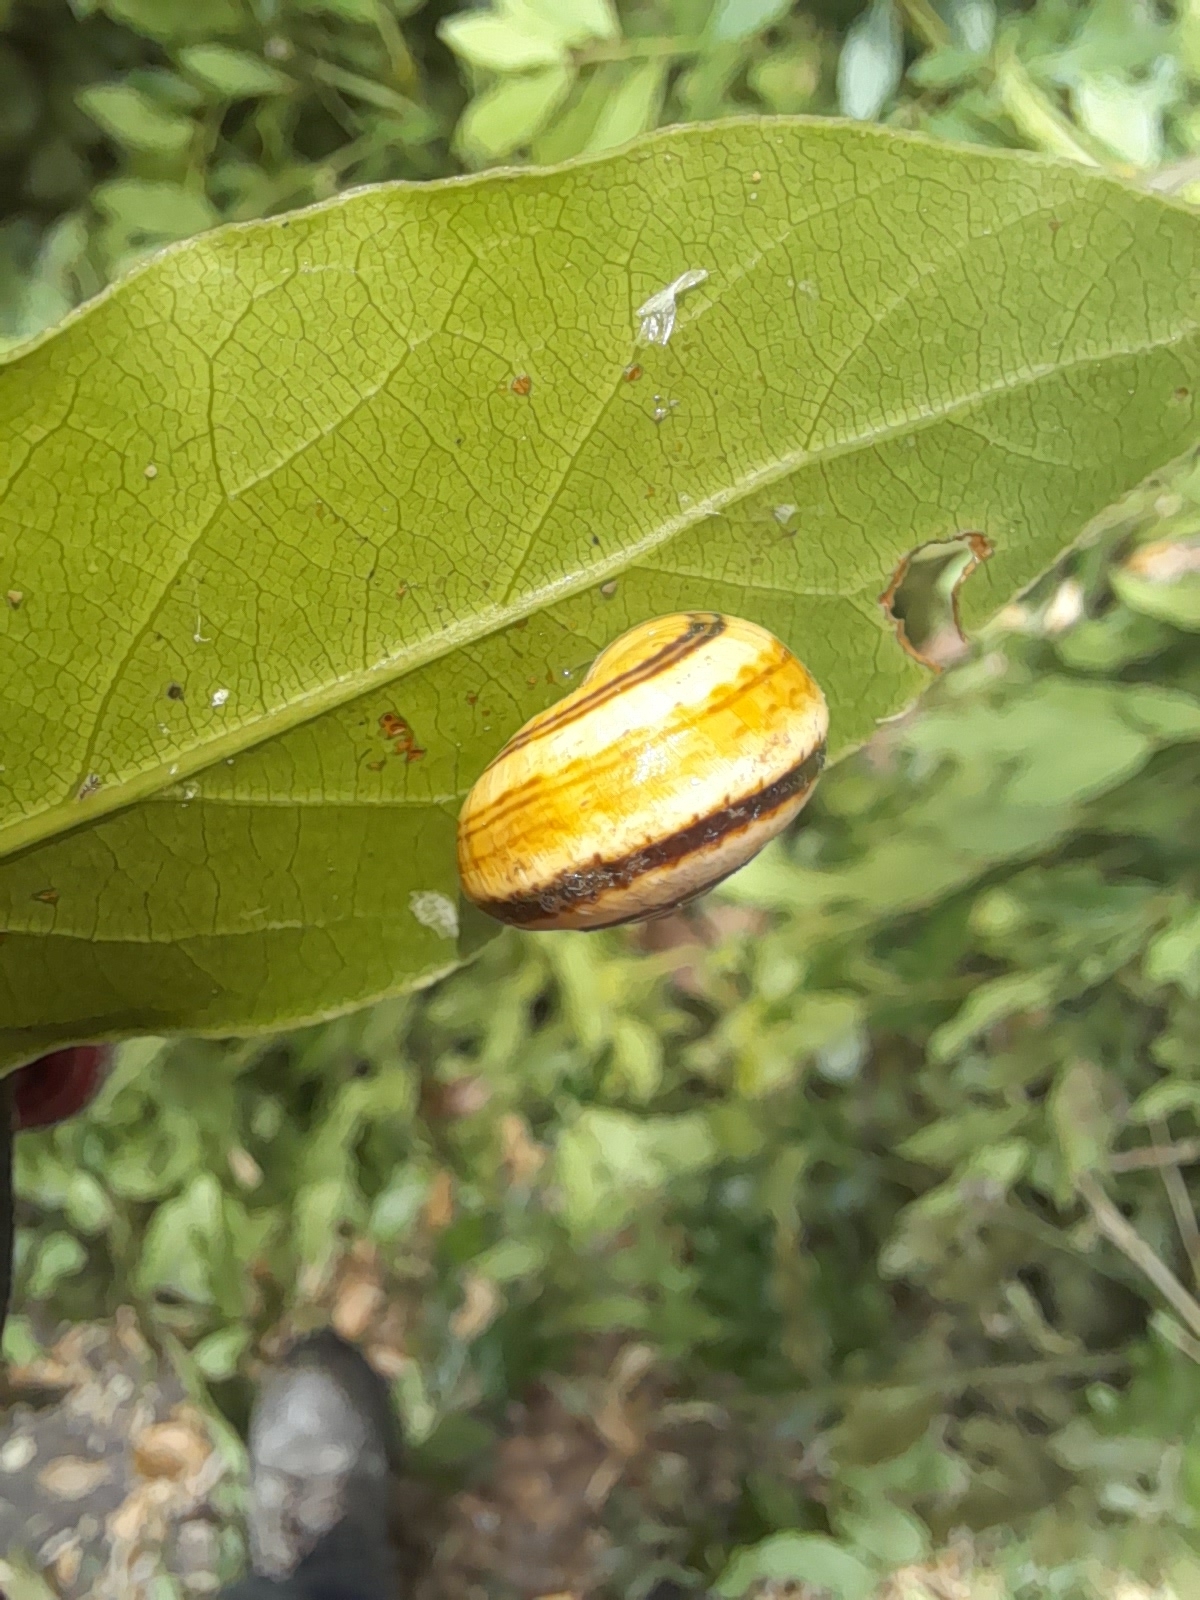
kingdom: Animalia
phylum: Mollusca
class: Gastropoda
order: Stylommatophora
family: Helicidae
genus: Theba
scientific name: Theba pisana
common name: White snail
